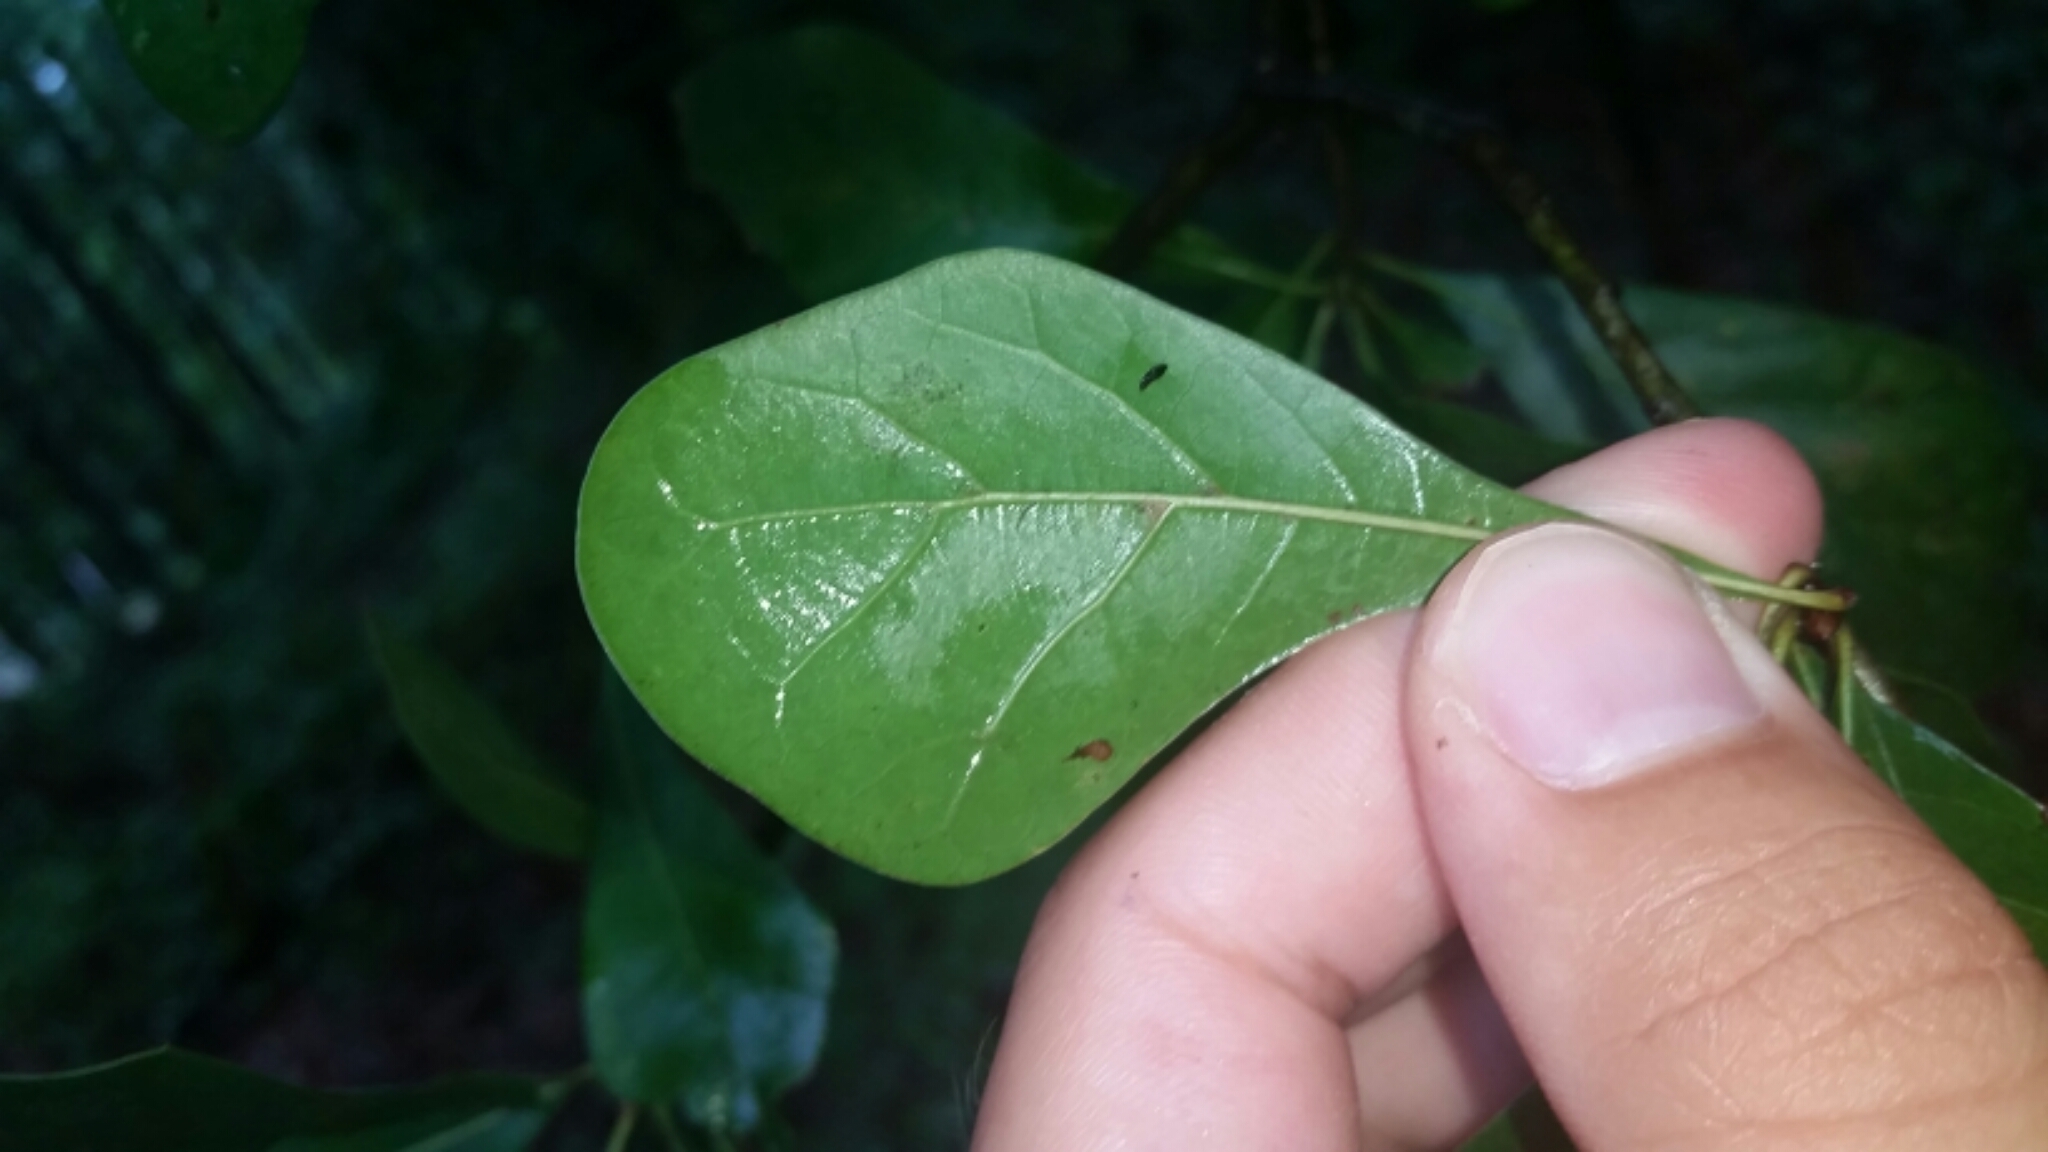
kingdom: Plantae
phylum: Tracheophyta
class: Magnoliopsida
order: Fagales
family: Fagaceae
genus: Quercus
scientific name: Quercus nigra
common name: Water oak
